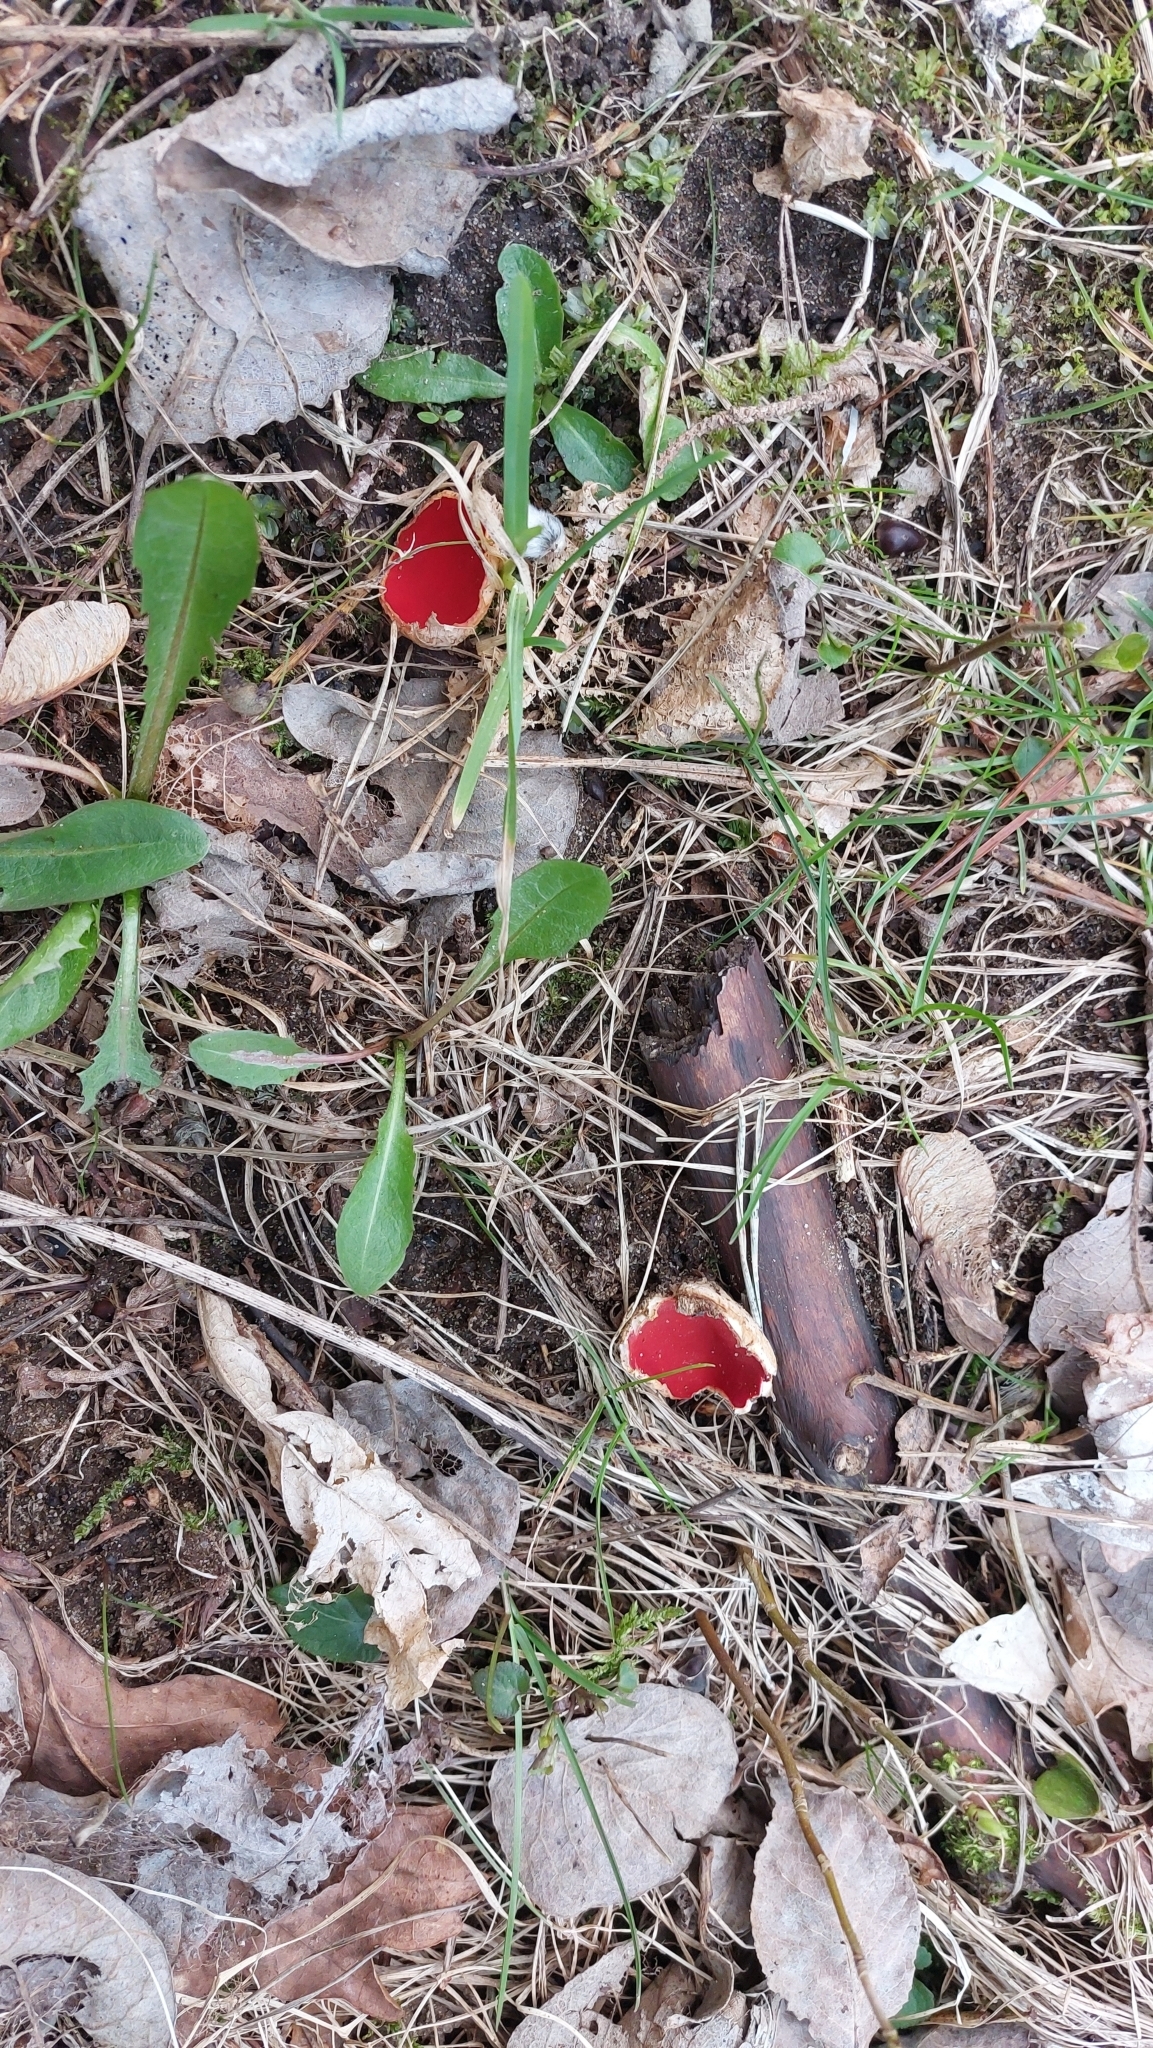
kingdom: Fungi
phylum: Ascomycota
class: Pezizomycetes
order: Pezizales
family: Sarcoscyphaceae
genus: Sarcoscypha
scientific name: Sarcoscypha
